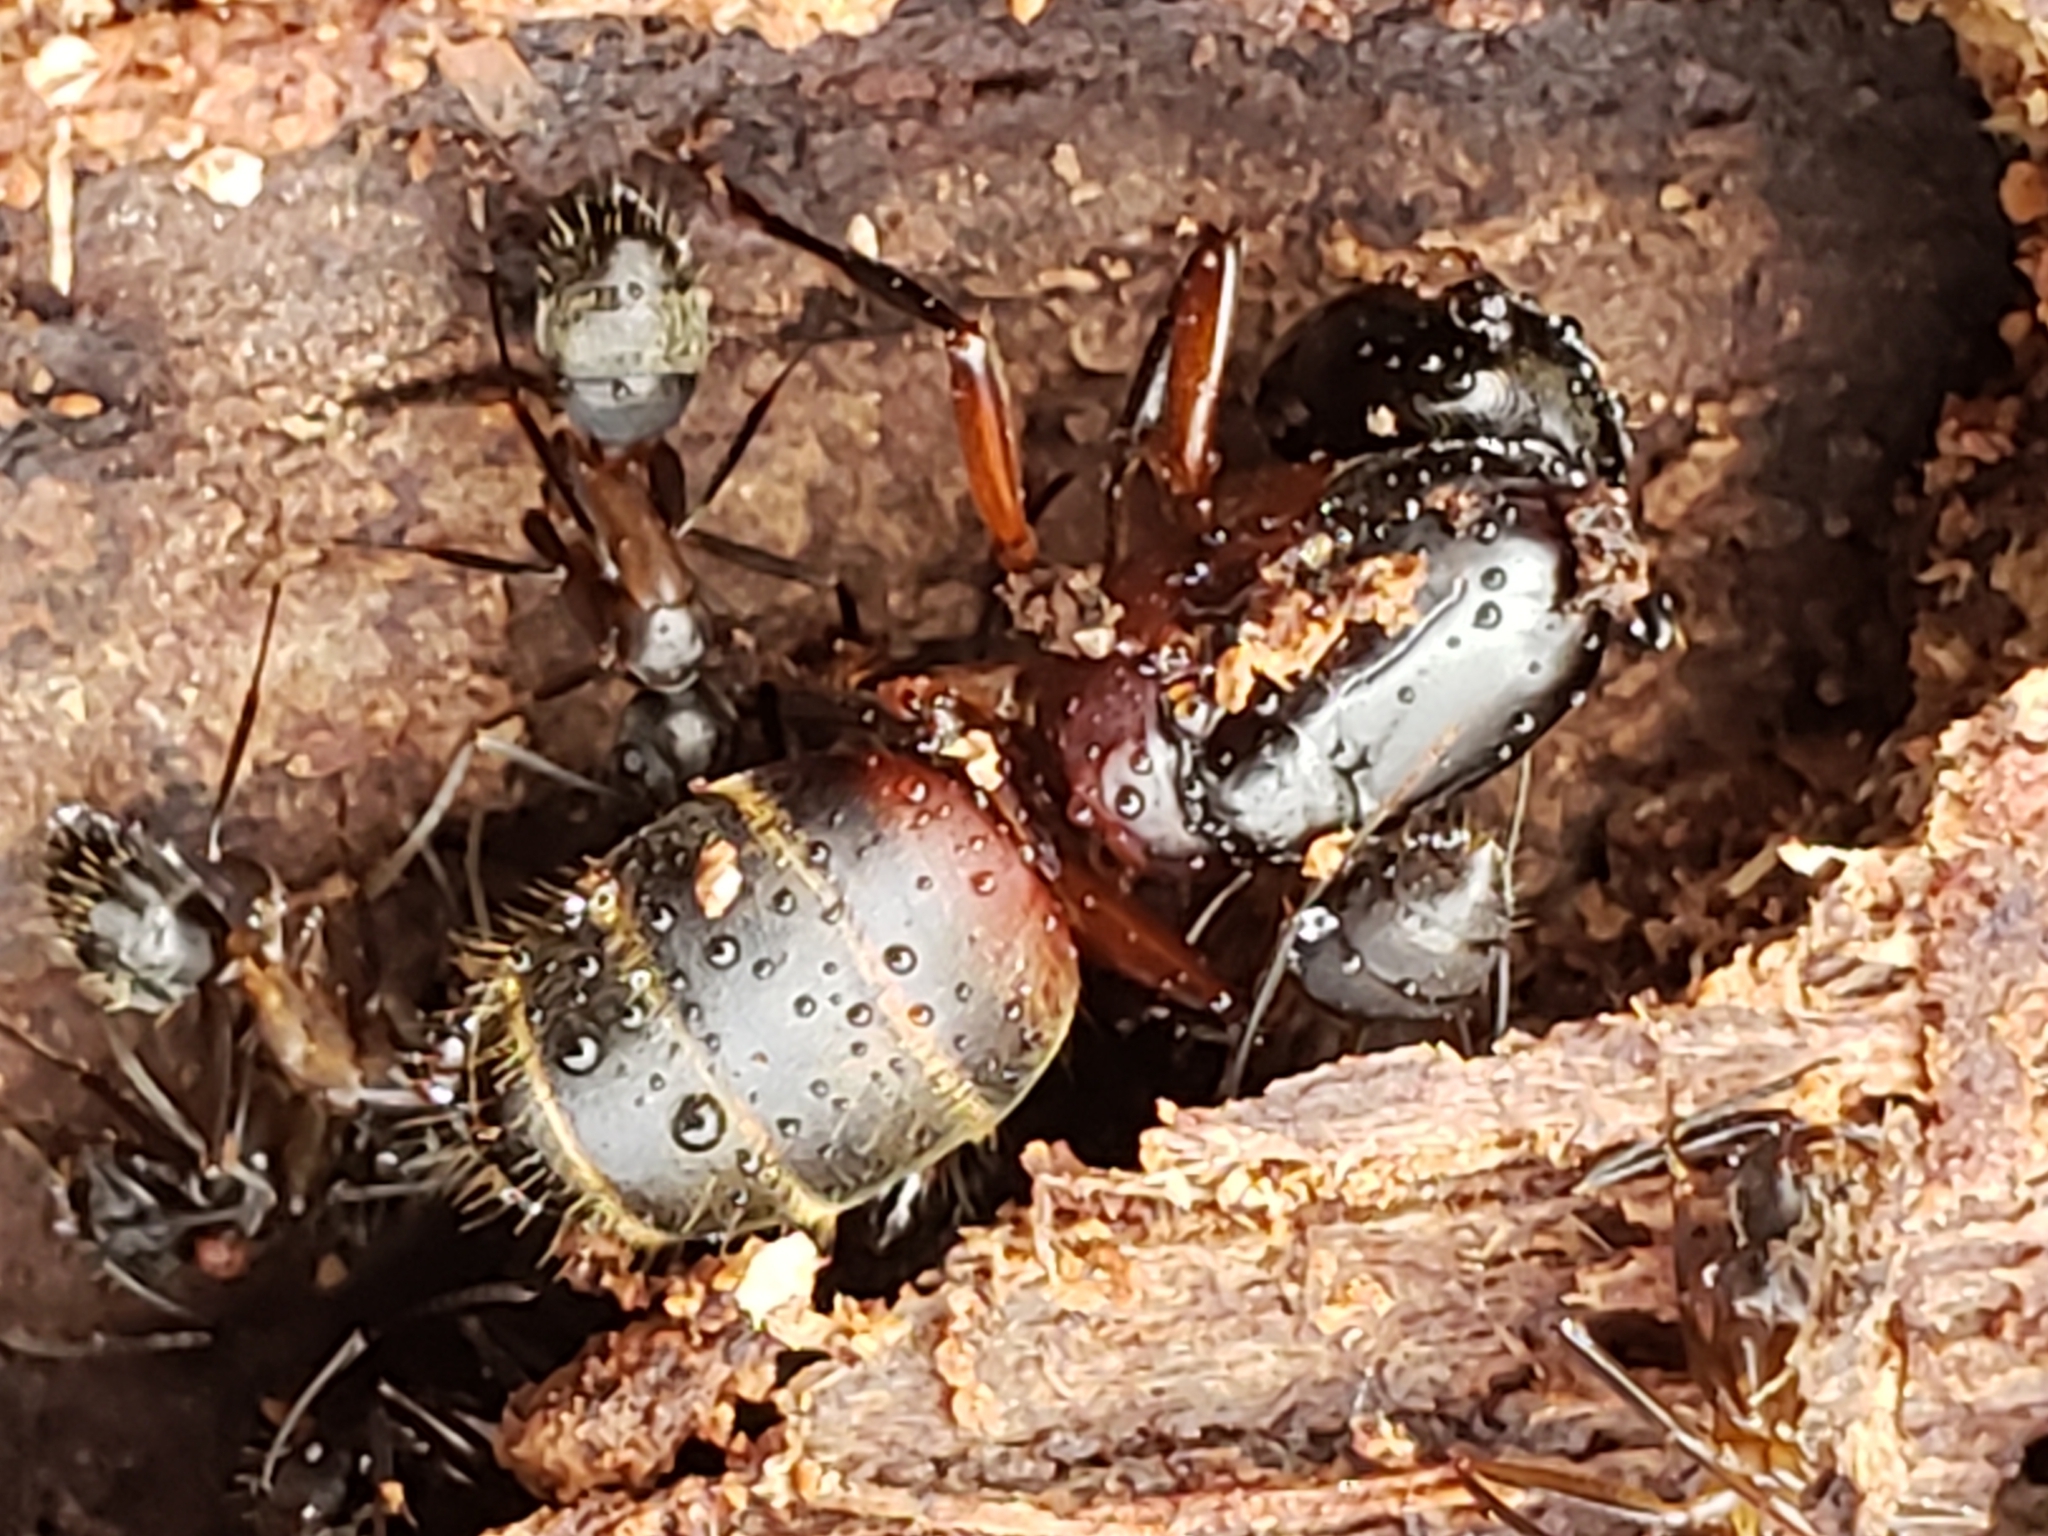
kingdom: Animalia
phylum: Arthropoda
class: Insecta
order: Hymenoptera
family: Formicidae
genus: Camponotus
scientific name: Camponotus chromaiodes
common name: Red carpenter ant
